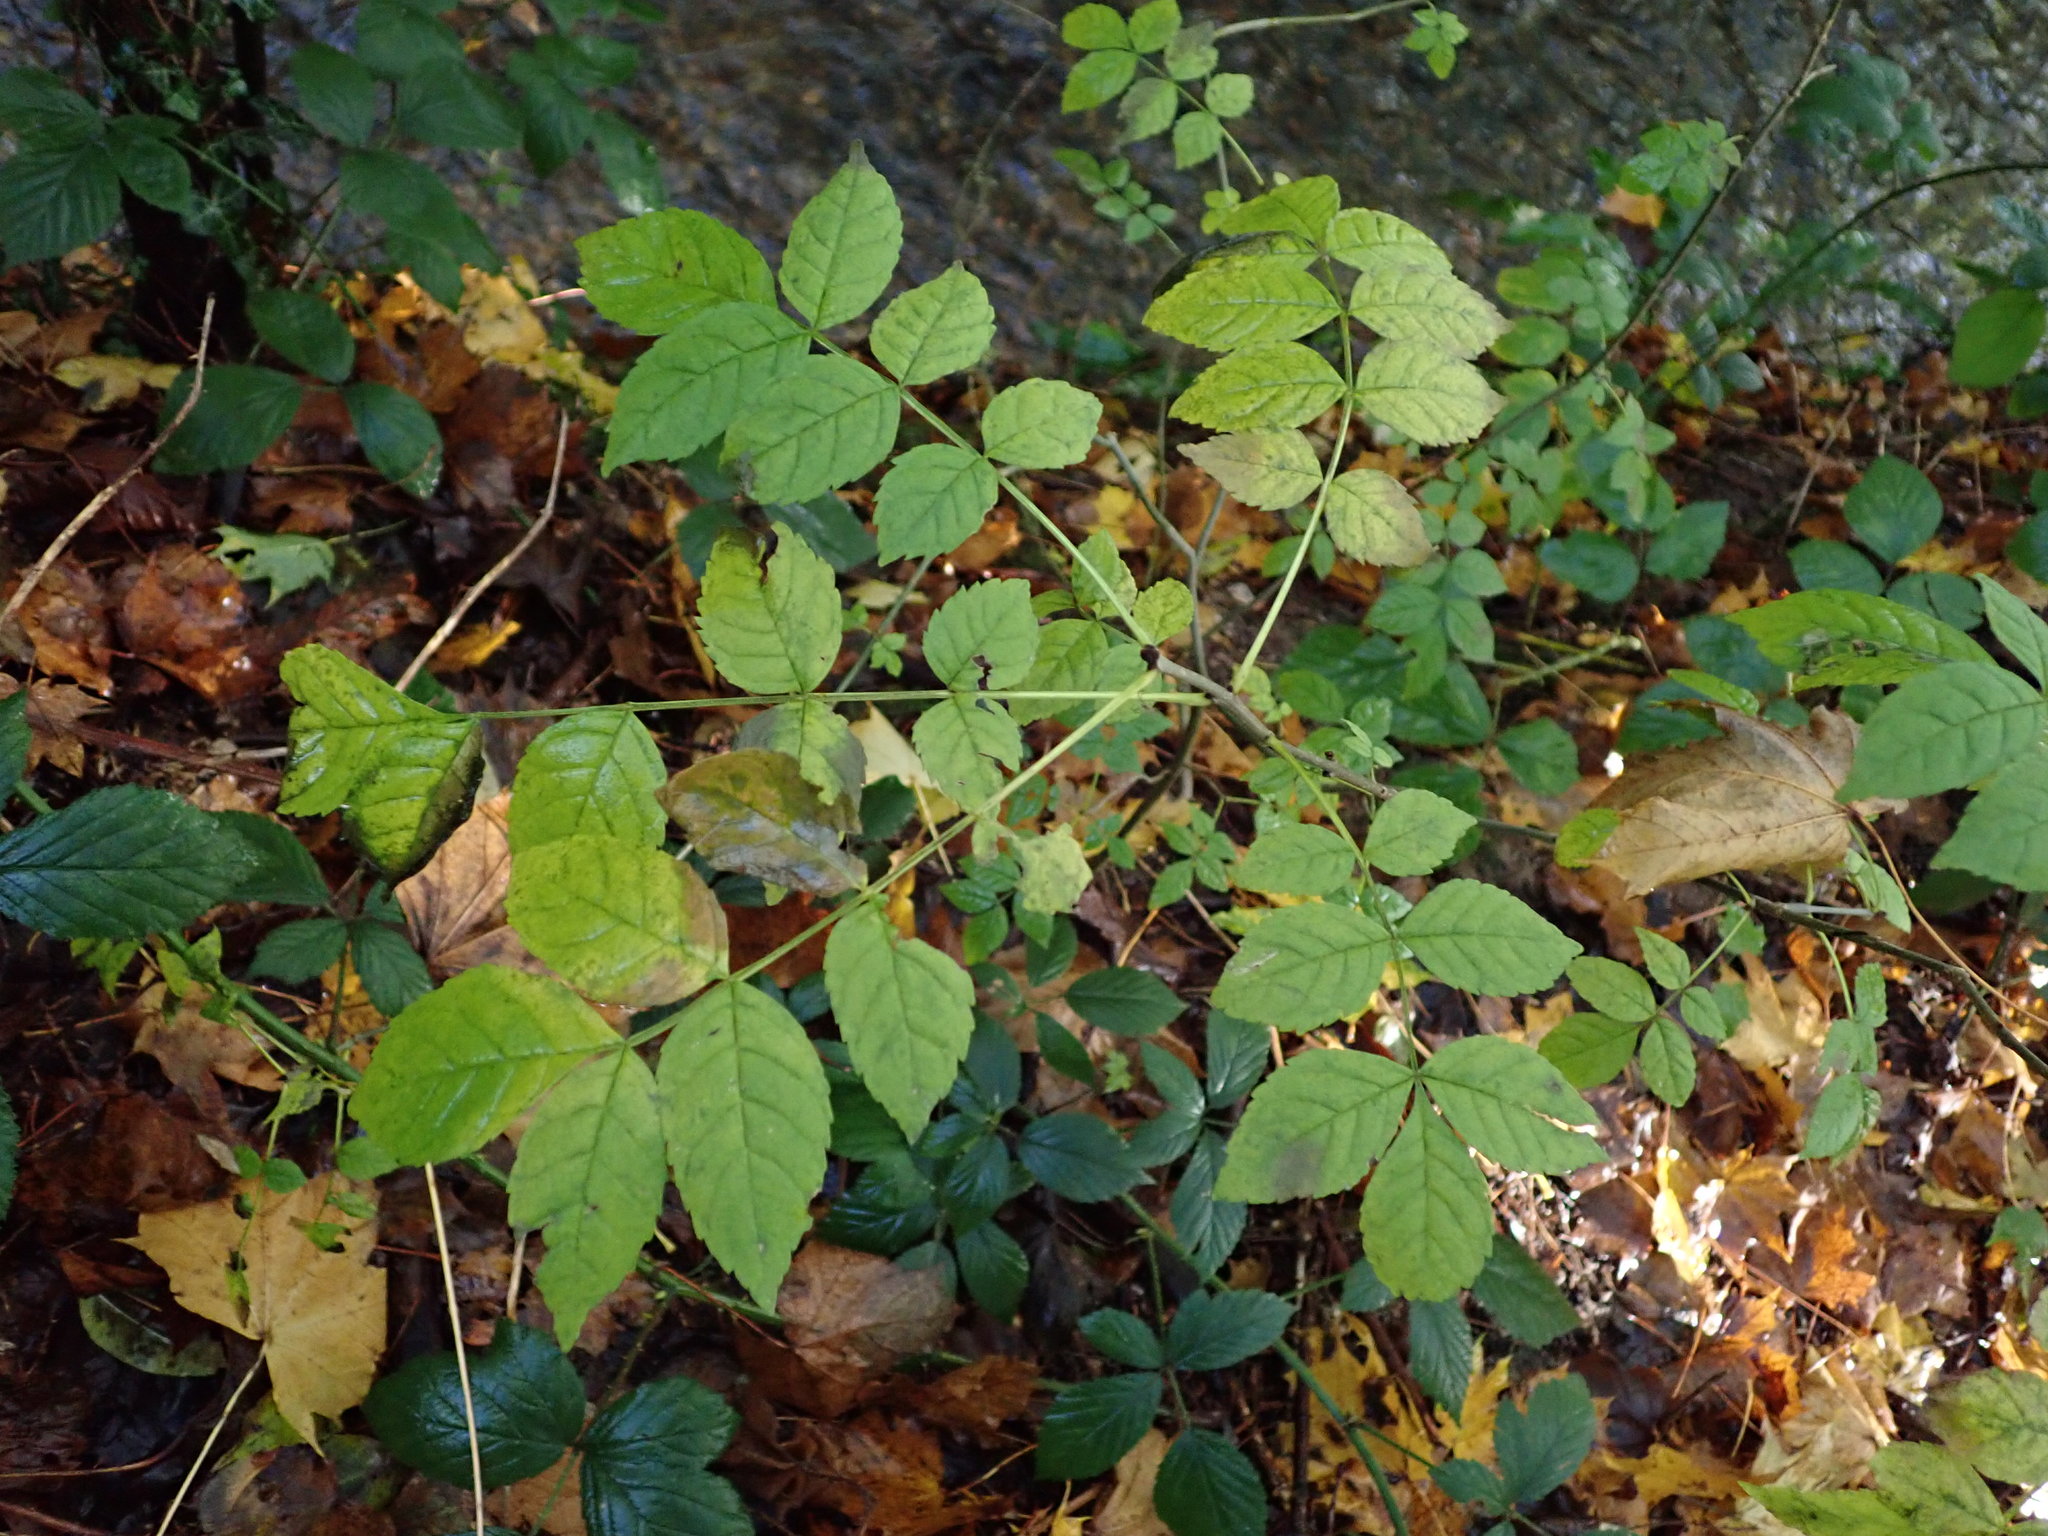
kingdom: Plantae
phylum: Tracheophyta
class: Magnoliopsida
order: Lamiales
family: Oleaceae
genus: Fraxinus
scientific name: Fraxinus excelsior
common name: European ash
